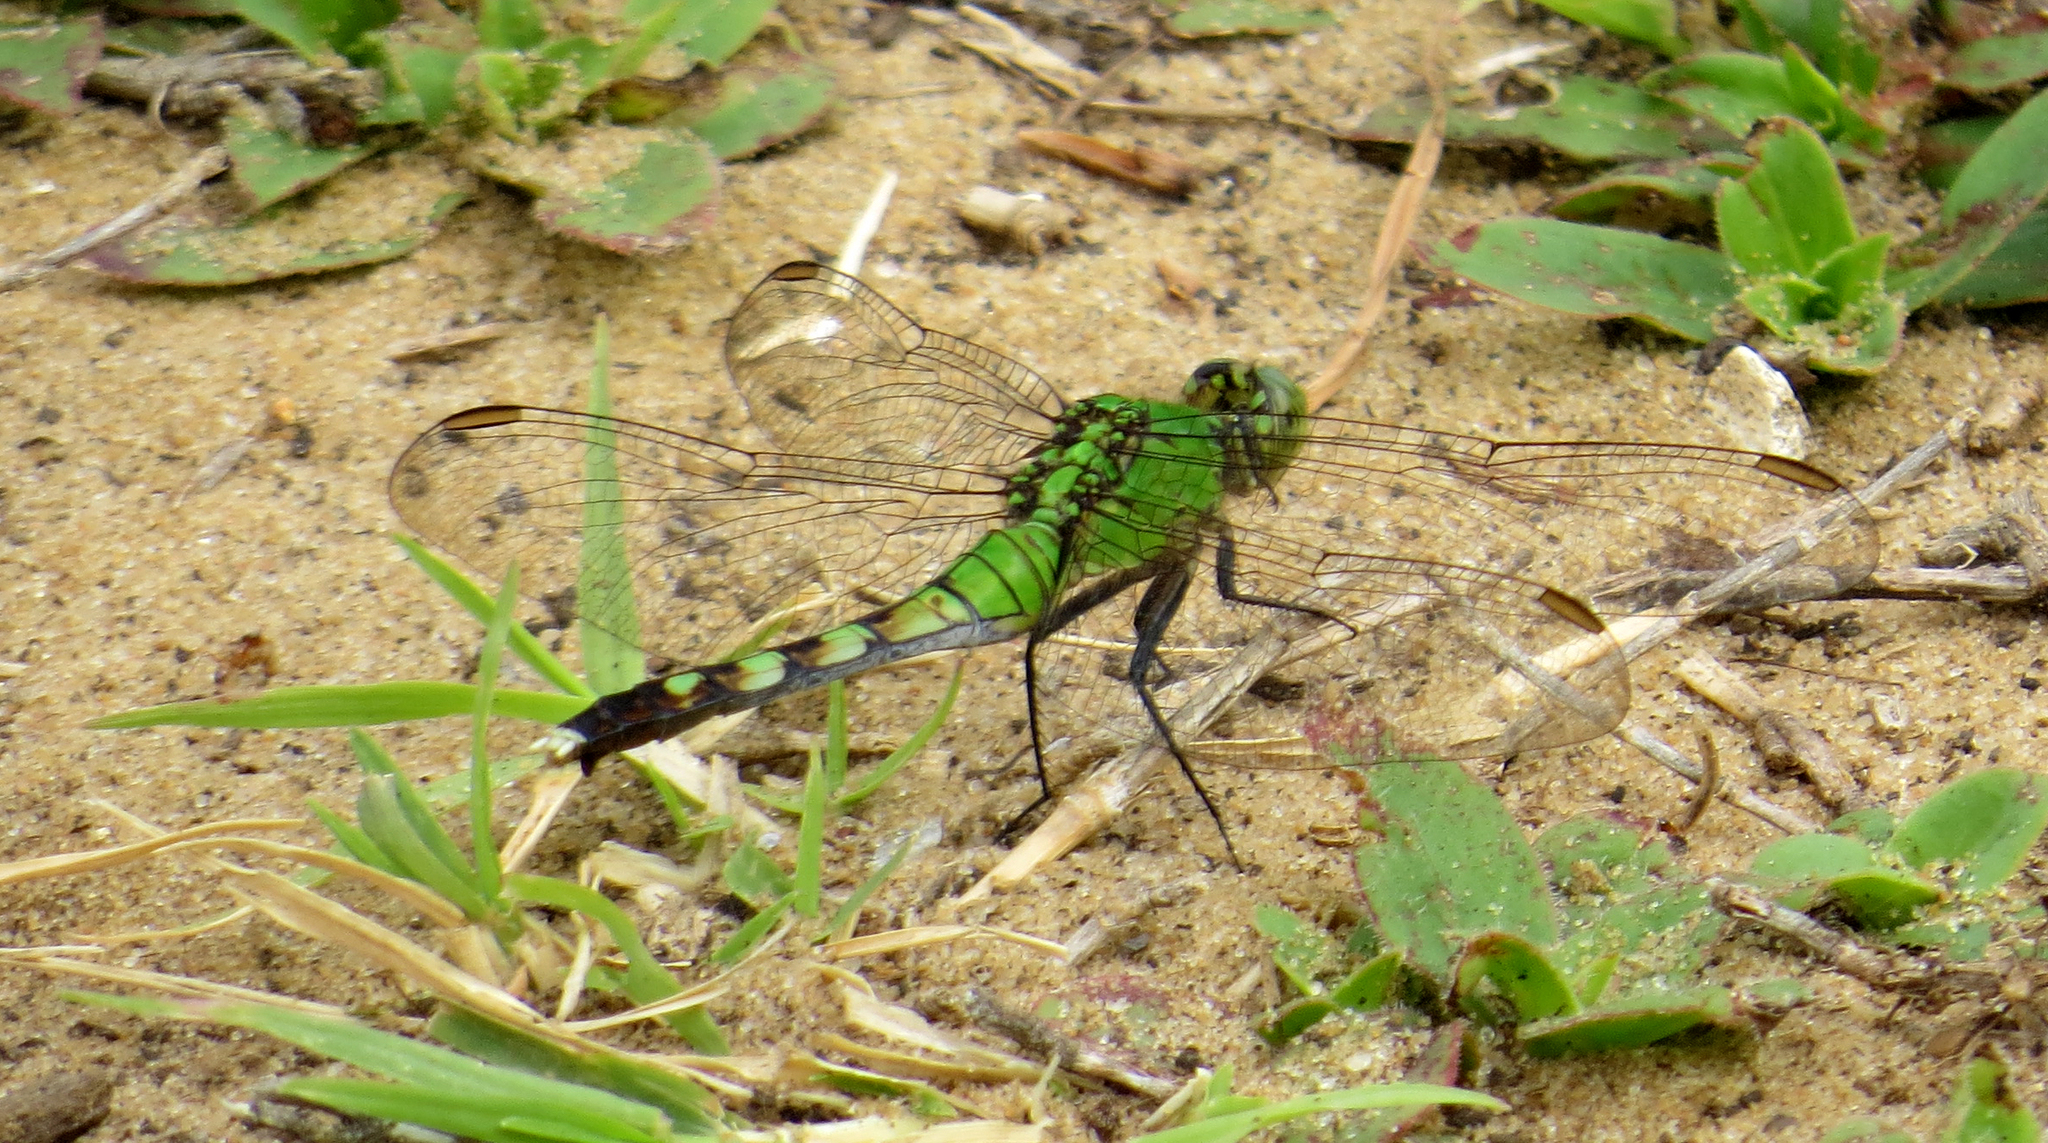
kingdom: Animalia
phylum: Arthropoda
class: Insecta
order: Odonata
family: Libellulidae
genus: Erythemis
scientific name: Erythemis simplicicollis
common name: Eastern pondhawk
